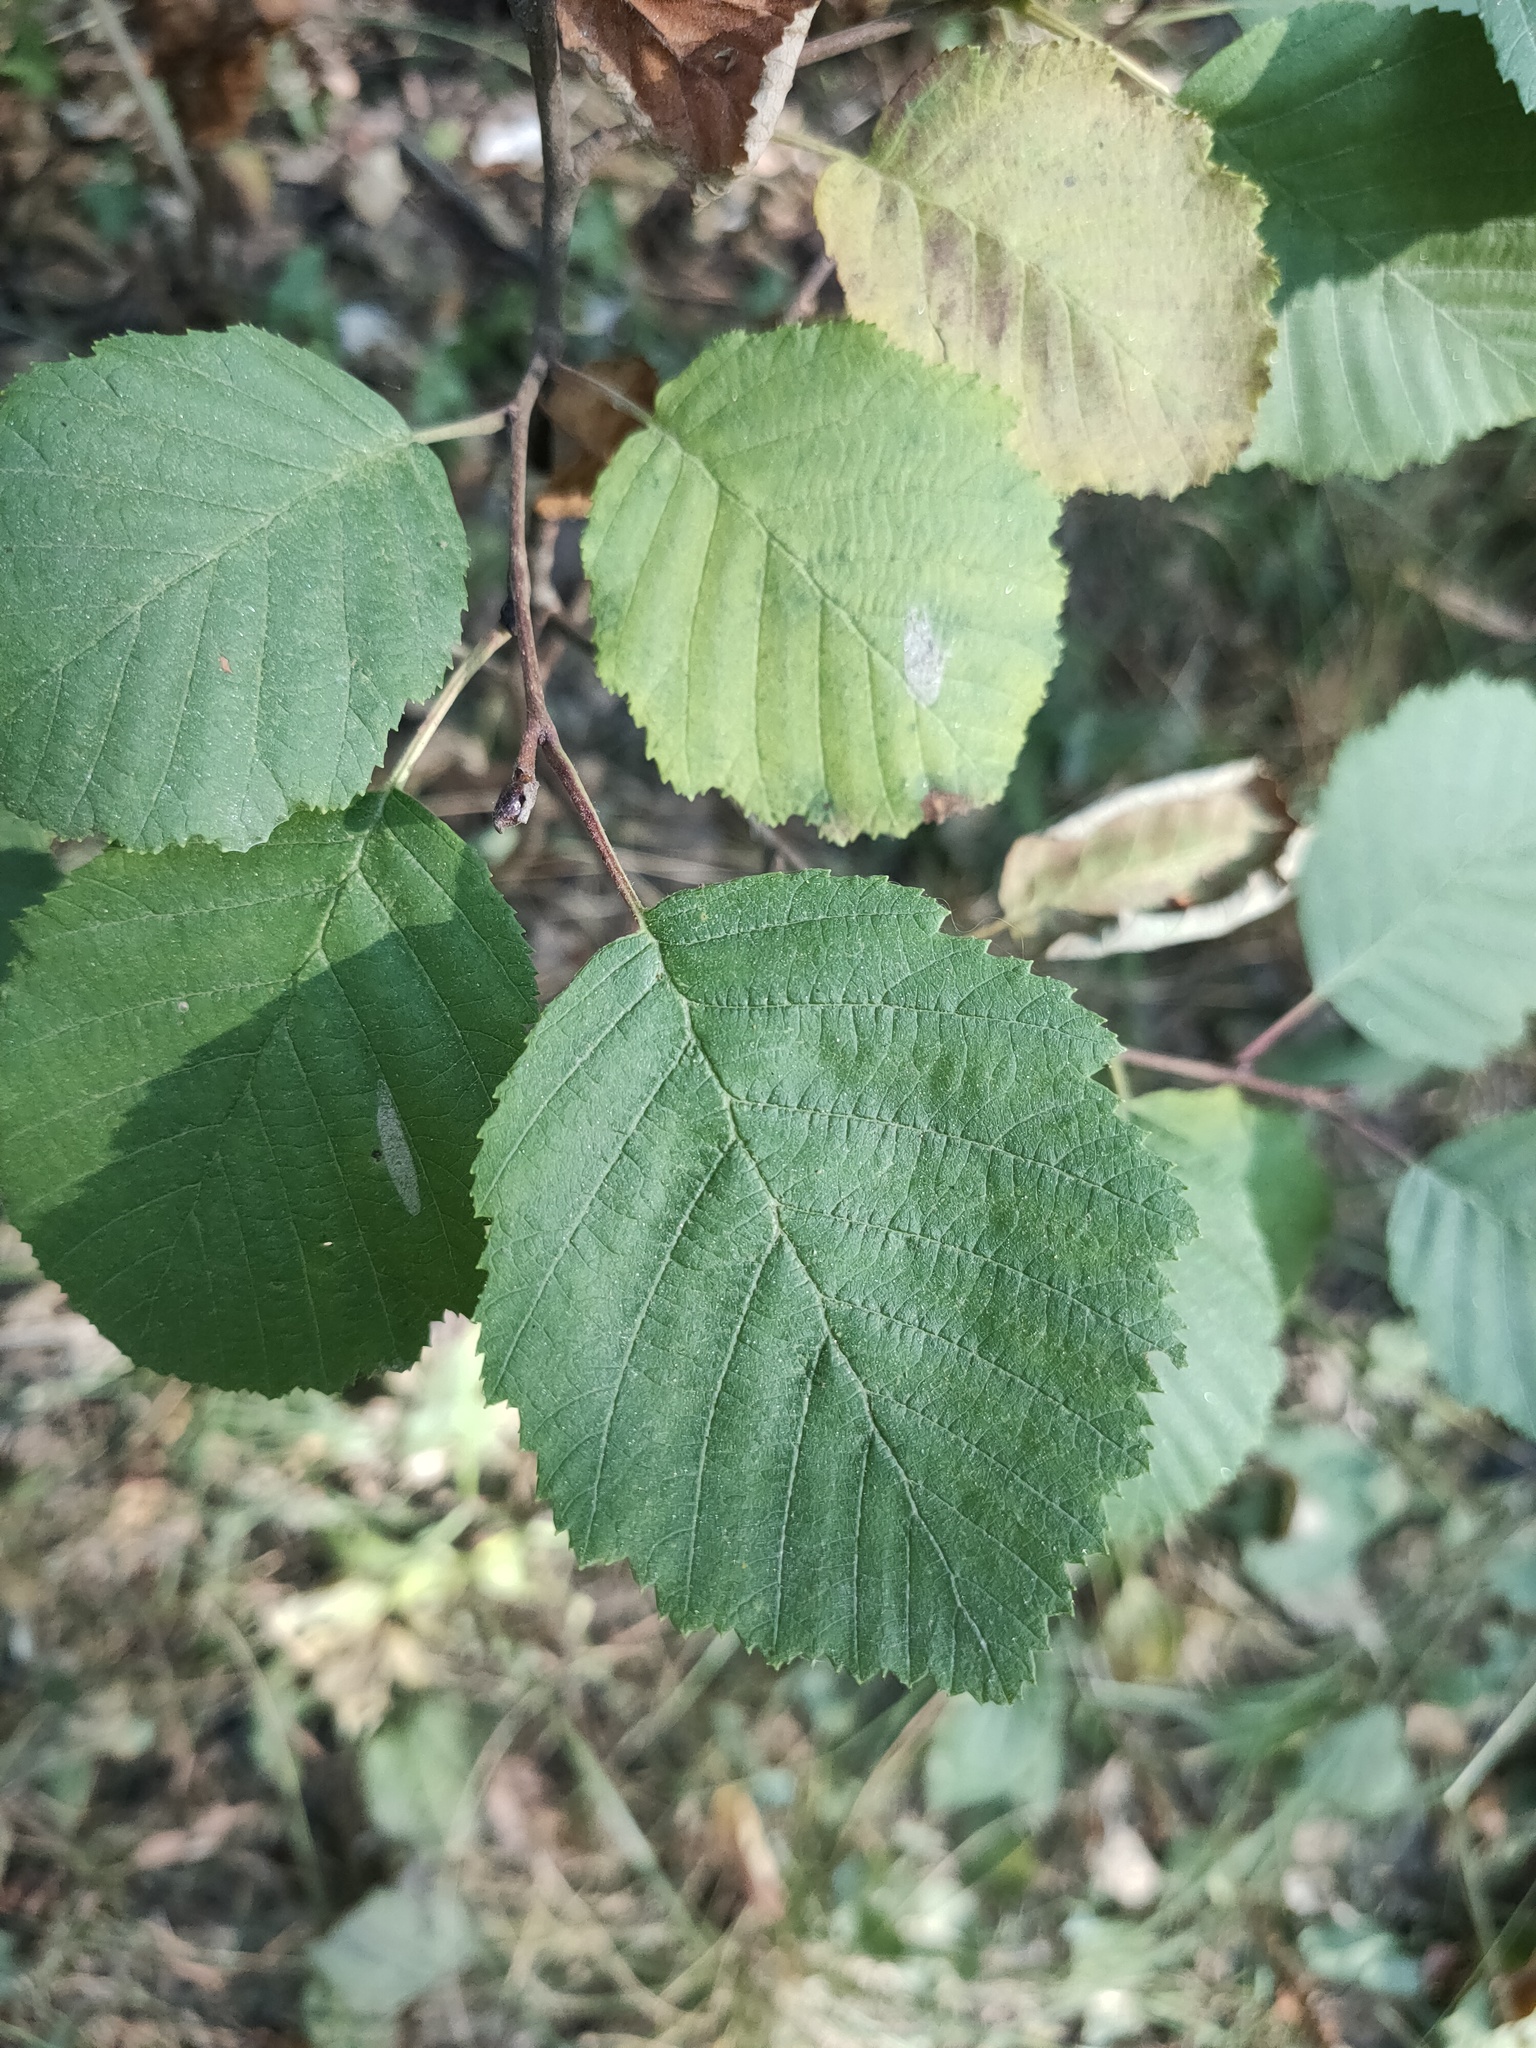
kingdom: Plantae
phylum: Tracheophyta
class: Magnoliopsida
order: Fagales
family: Betulaceae
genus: Alnus
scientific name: Alnus incana
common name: Grey alder
